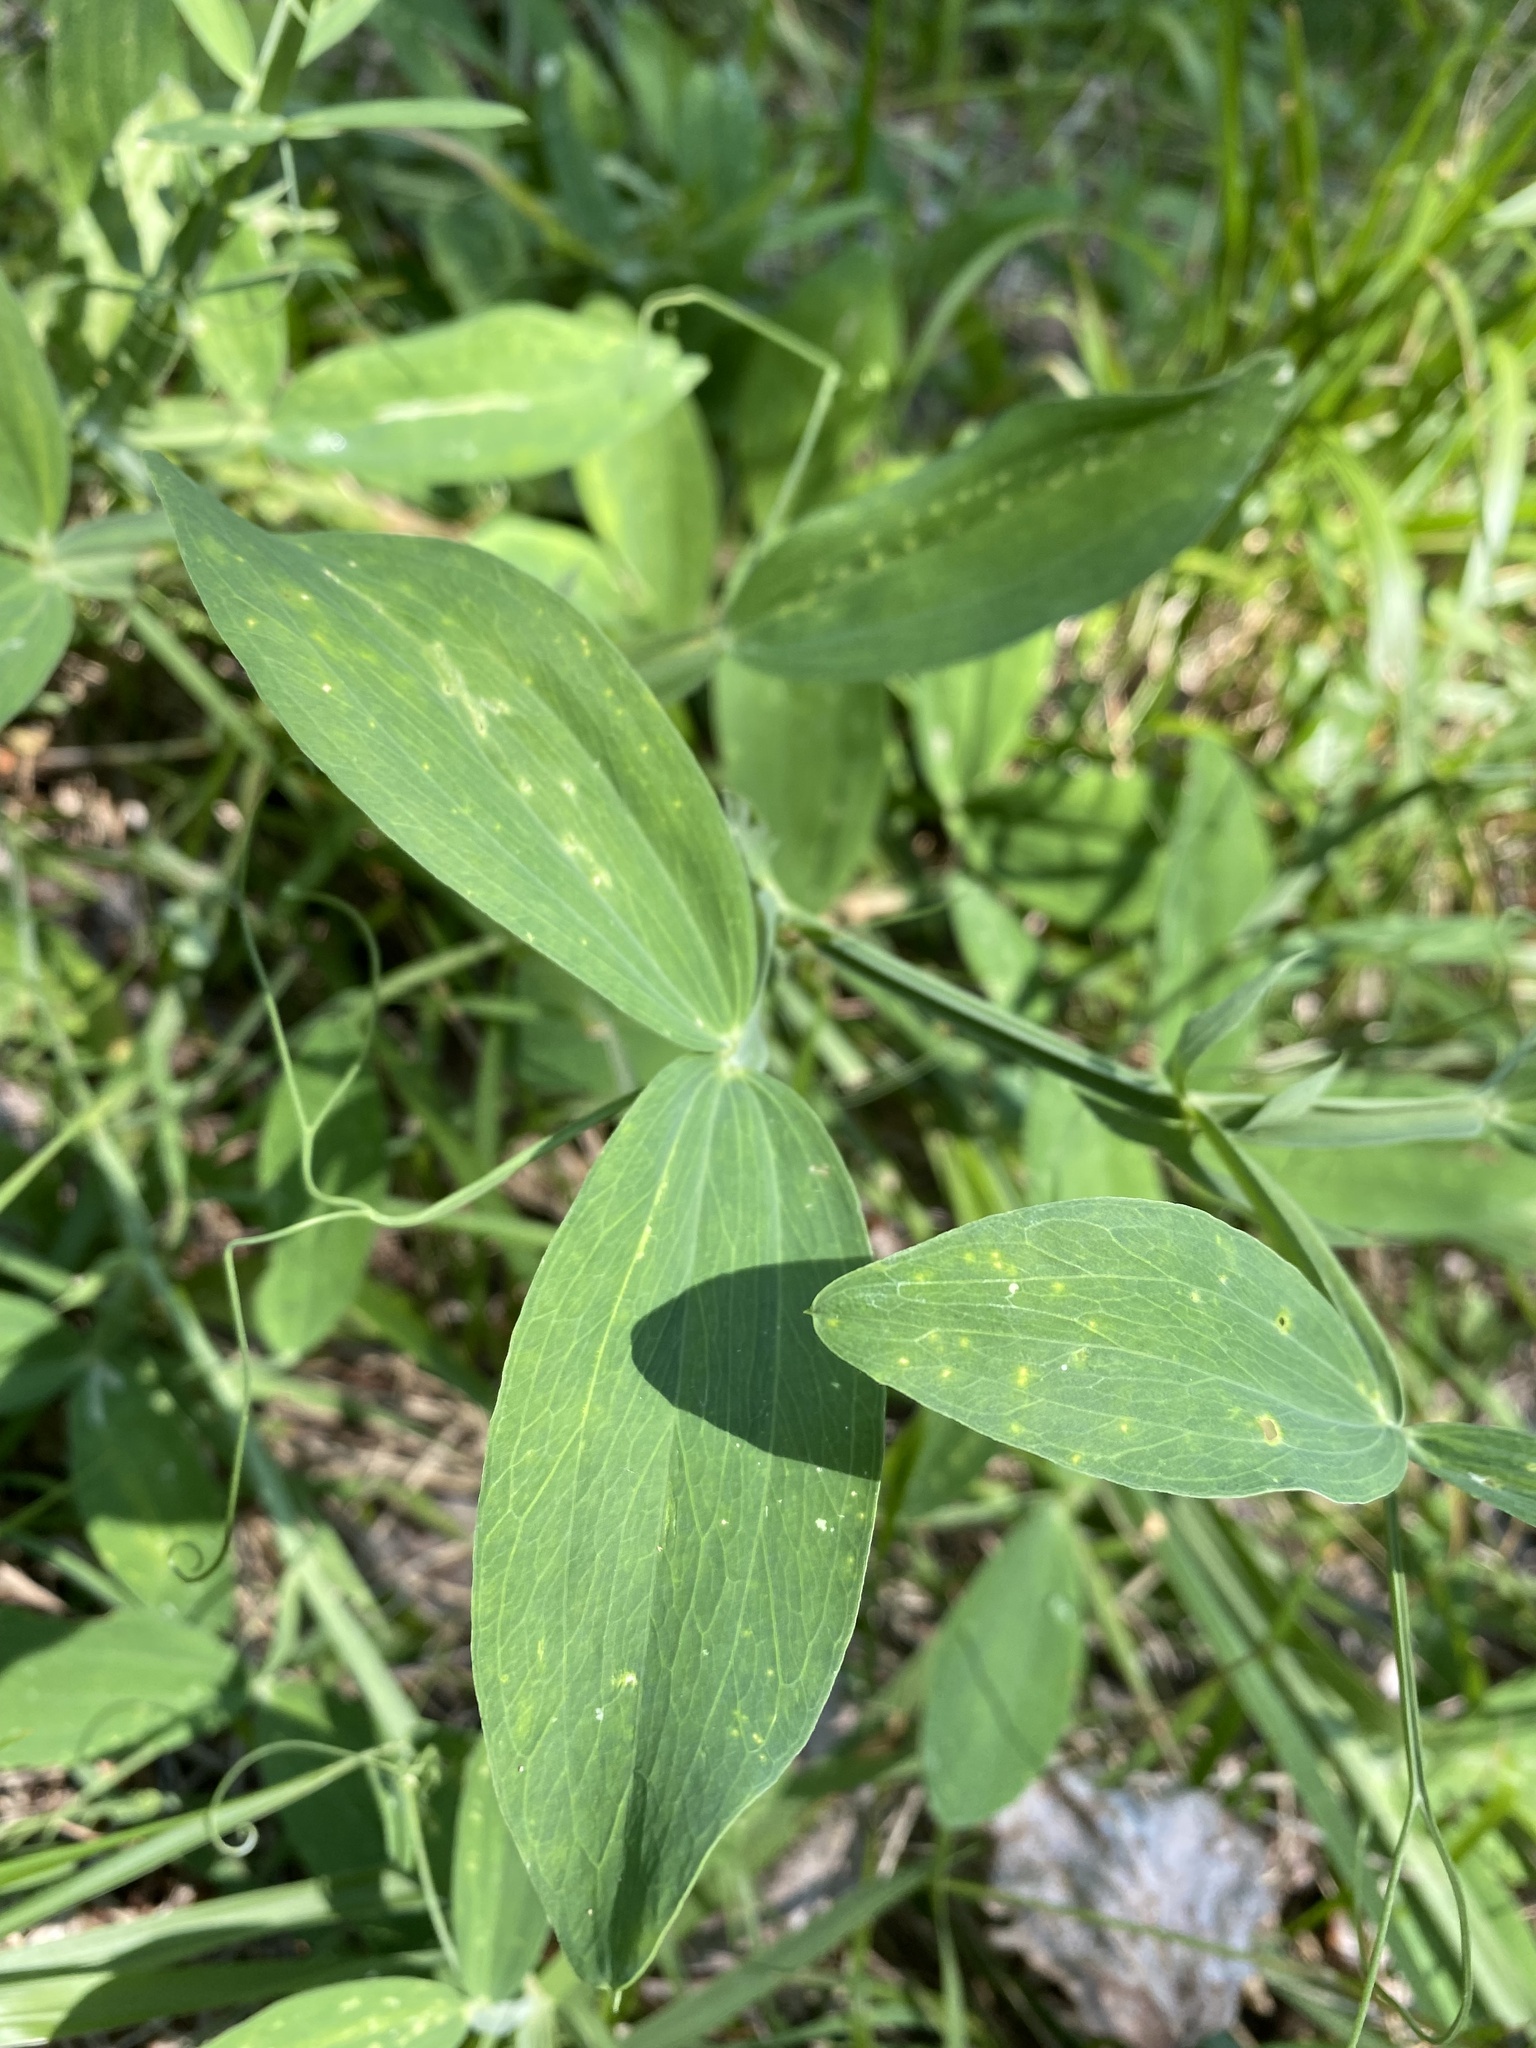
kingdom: Plantae
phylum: Tracheophyta
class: Magnoliopsida
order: Fabales
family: Fabaceae
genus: Lathyrus
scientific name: Lathyrus latifolius
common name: Perennial pea
